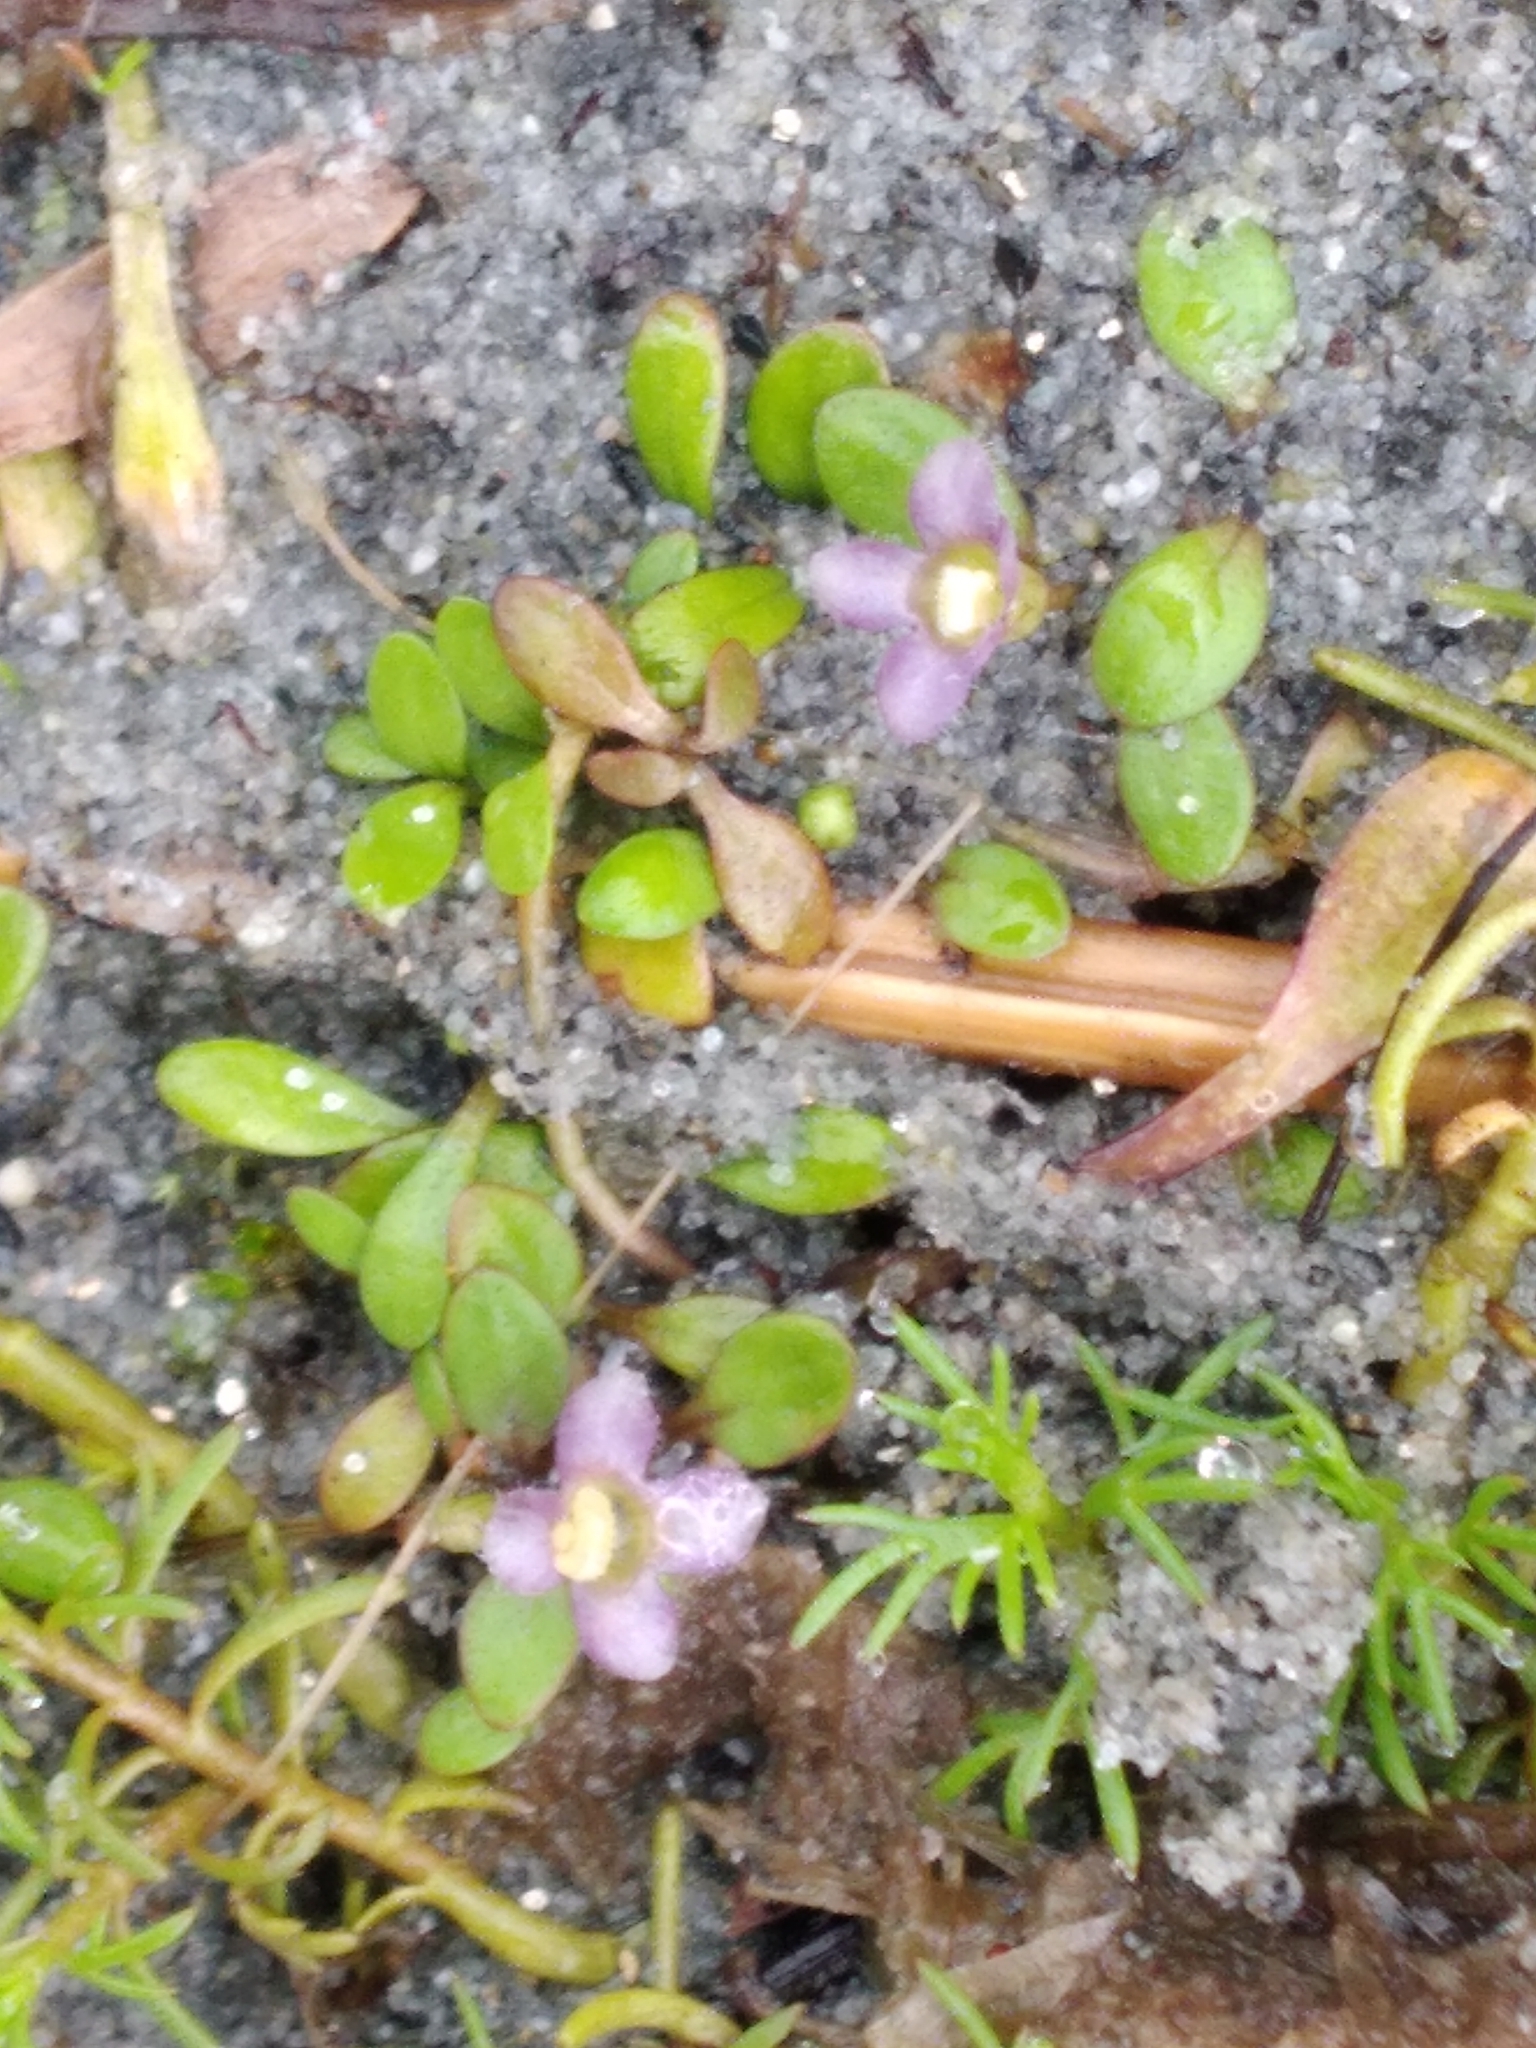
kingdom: Plantae
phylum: Tracheophyta
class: Magnoliopsida
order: Lamiales
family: Phrymaceae
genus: Glossostigma
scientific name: Glossostigma elatinoides
